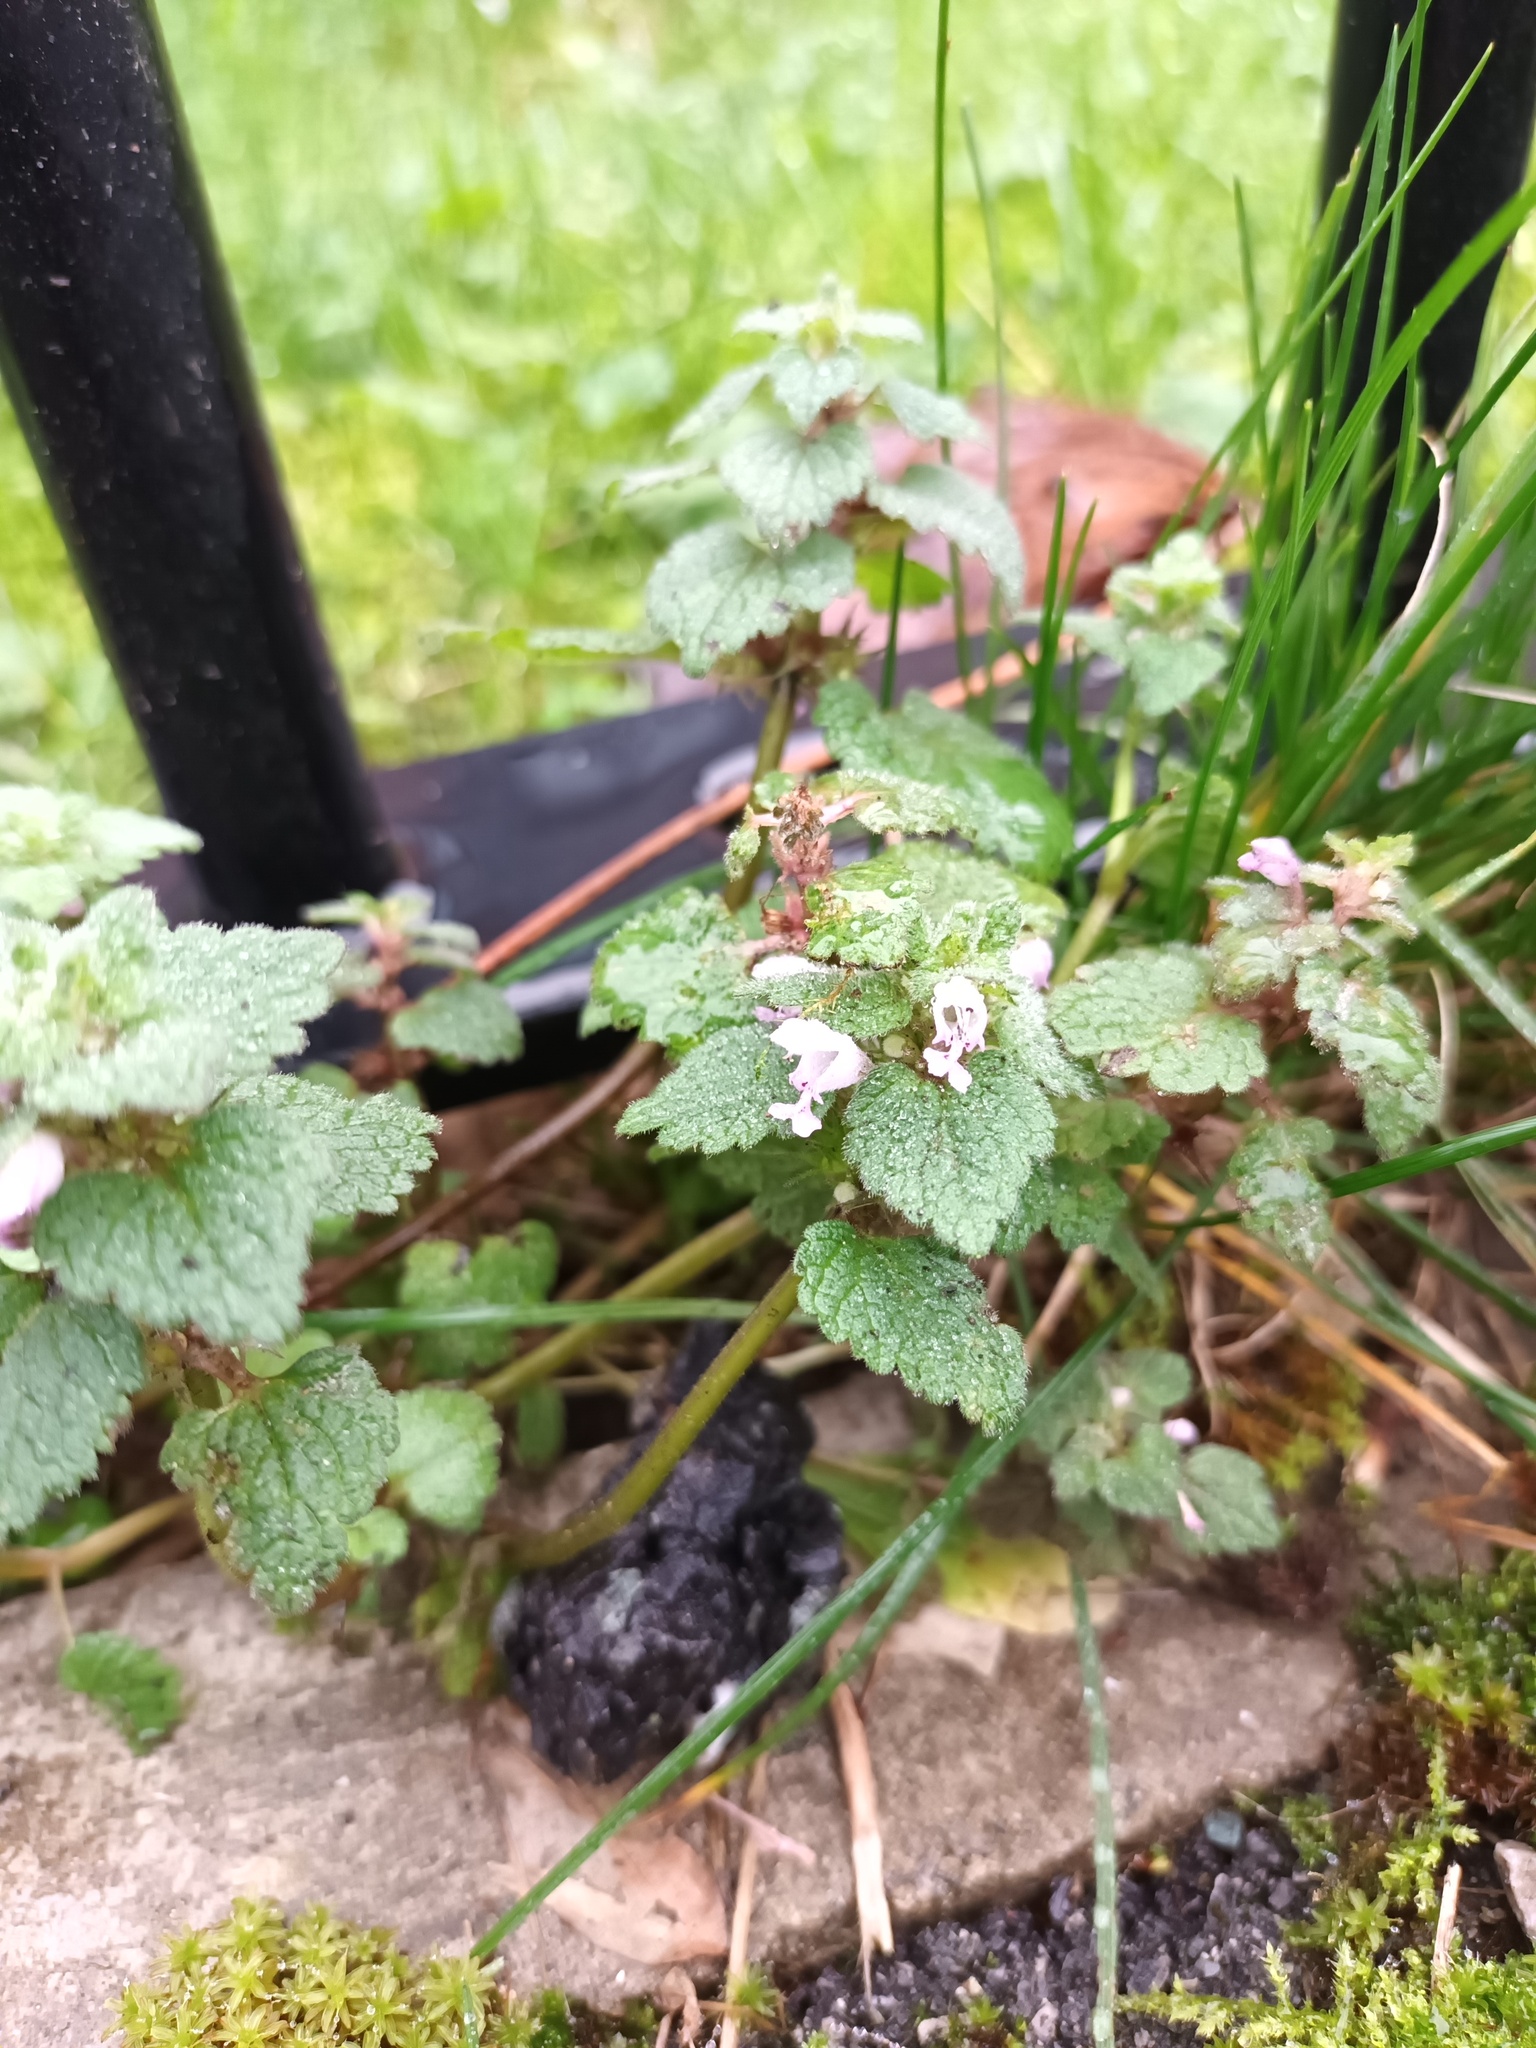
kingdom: Plantae
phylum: Tracheophyta
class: Magnoliopsida
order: Lamiales
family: Lamiaceae
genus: Lamium
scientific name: Lamium purpureum
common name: Red dead-nettle
